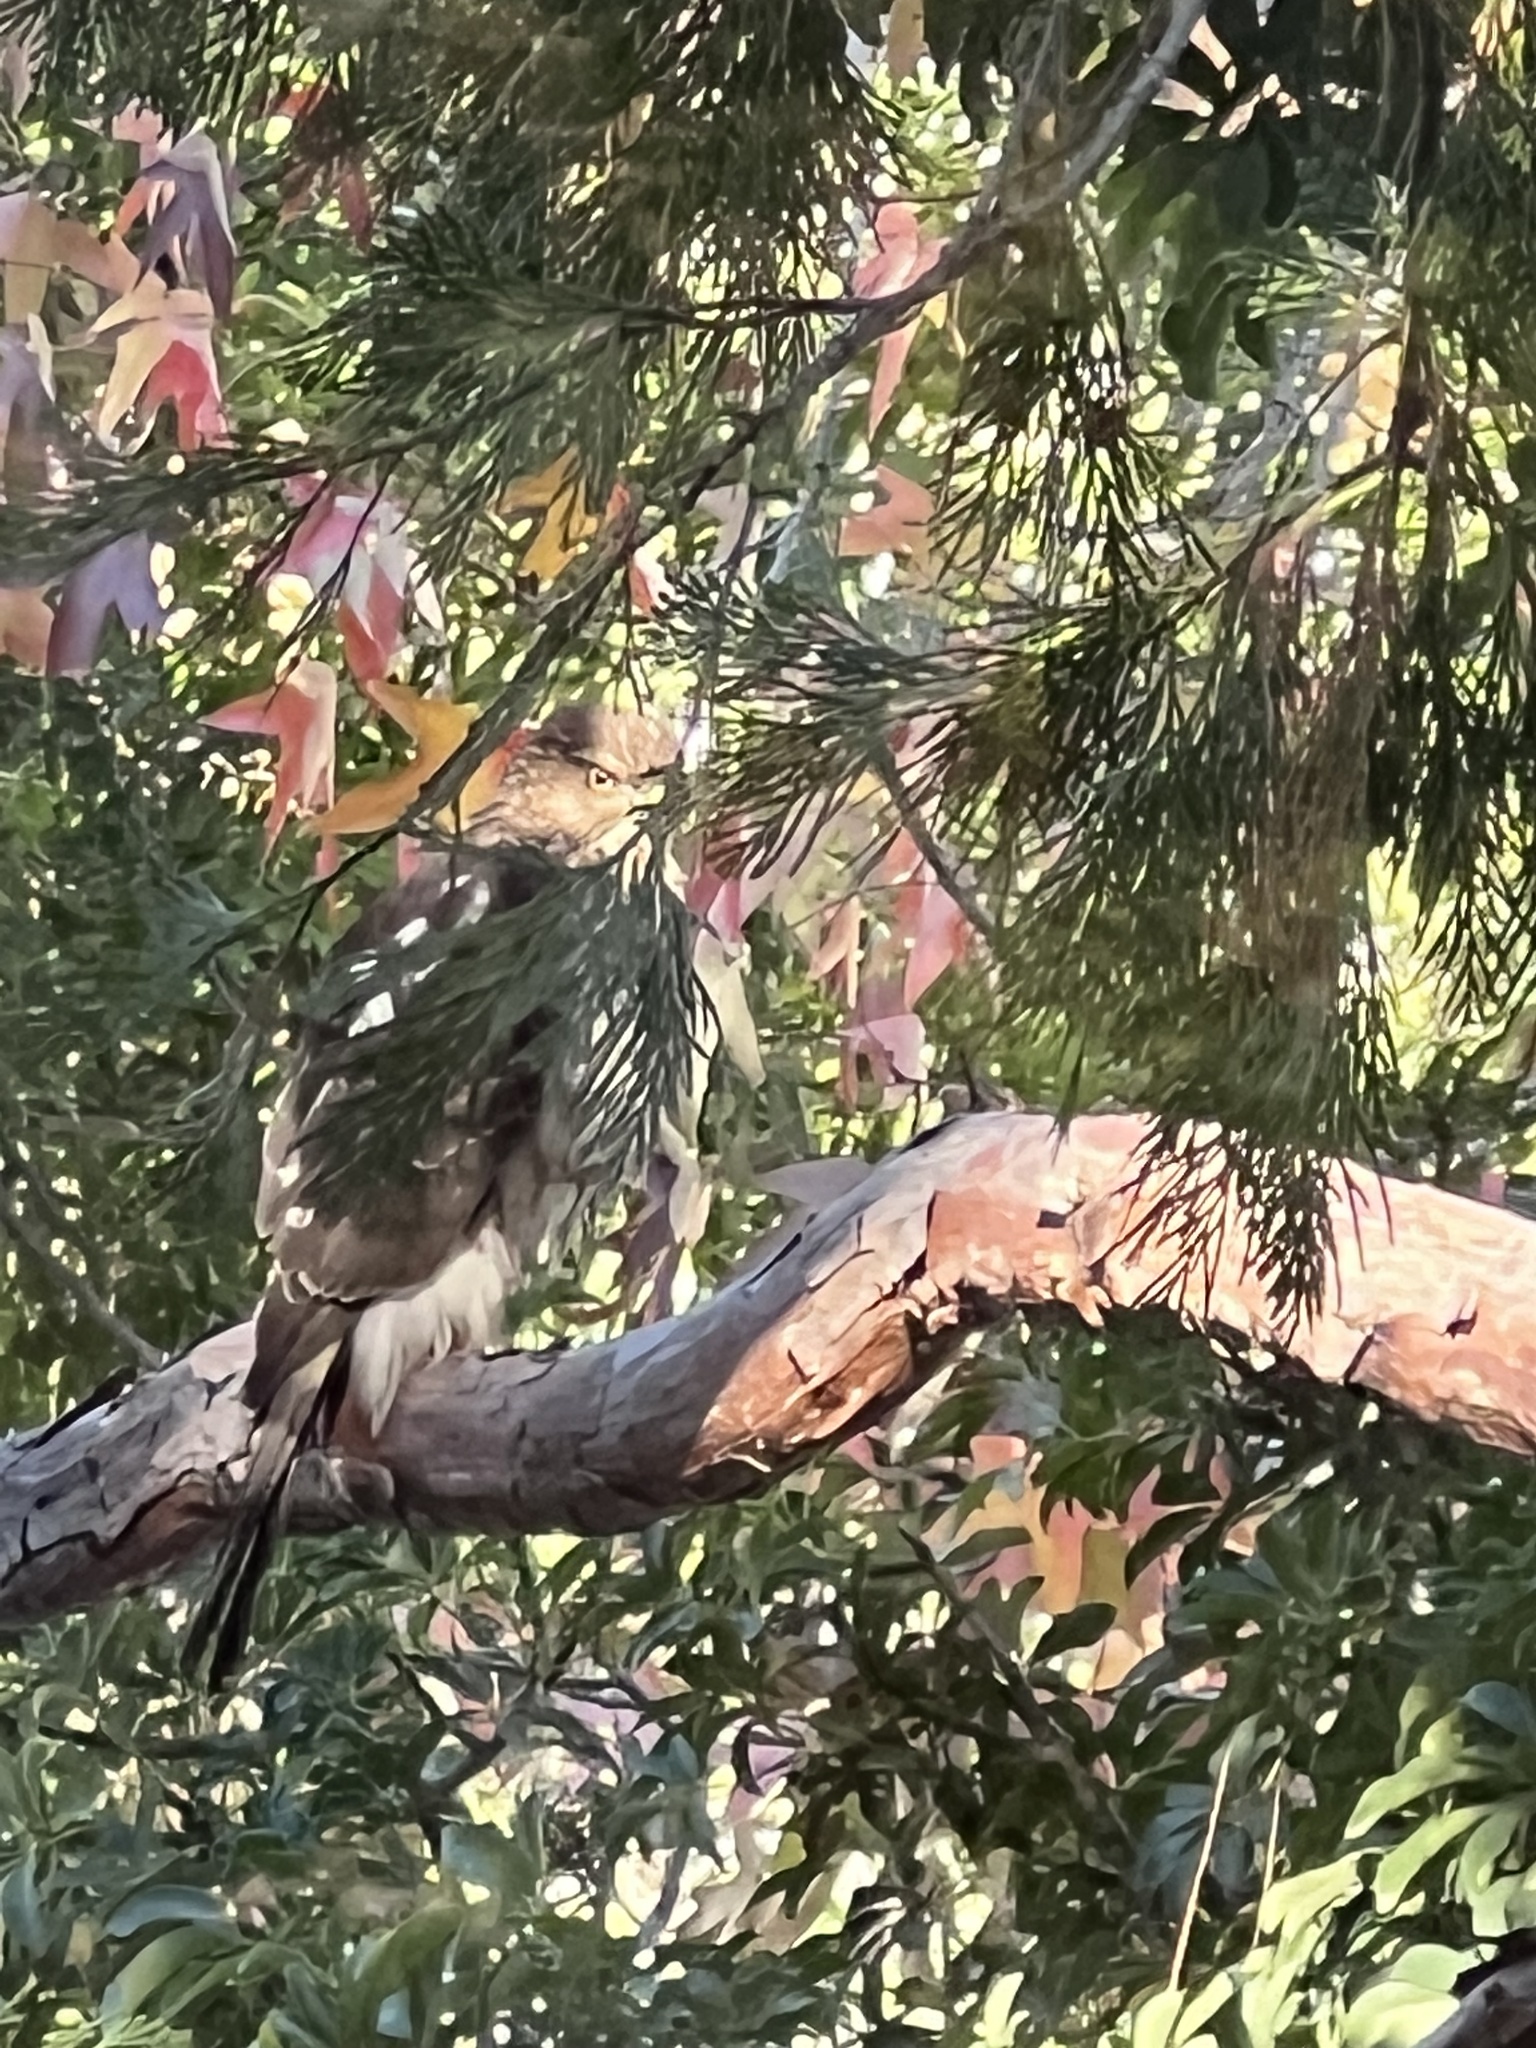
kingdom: Animalia
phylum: Chordata
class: Aves
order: Accipitriformes
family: Accipitridae
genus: Accipiter
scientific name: Accipiter cooperii
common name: Cooper's hawk
